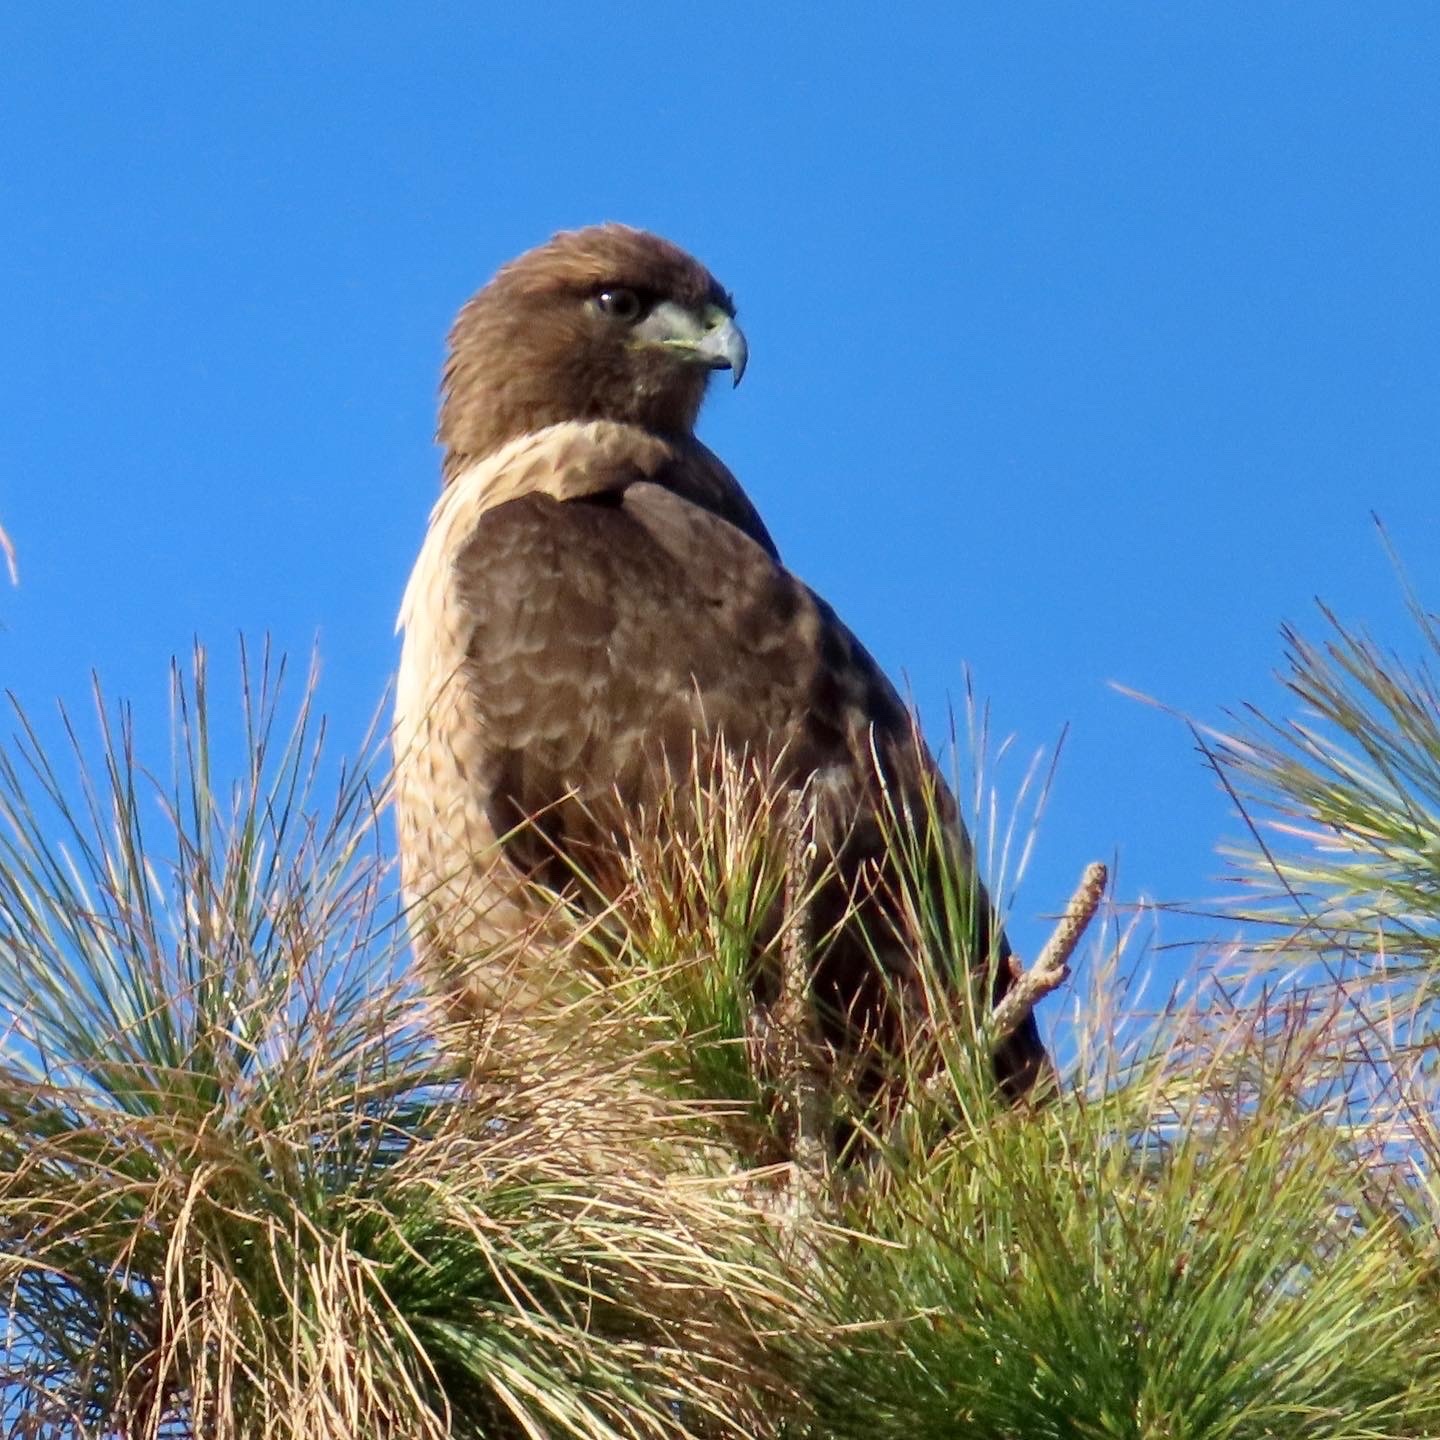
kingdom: Animalia
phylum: Chordata
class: Aves
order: Accipitriformes
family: Accipitridae
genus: Buteo
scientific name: Buteo jamaicensis
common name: Red-tailed hawk
